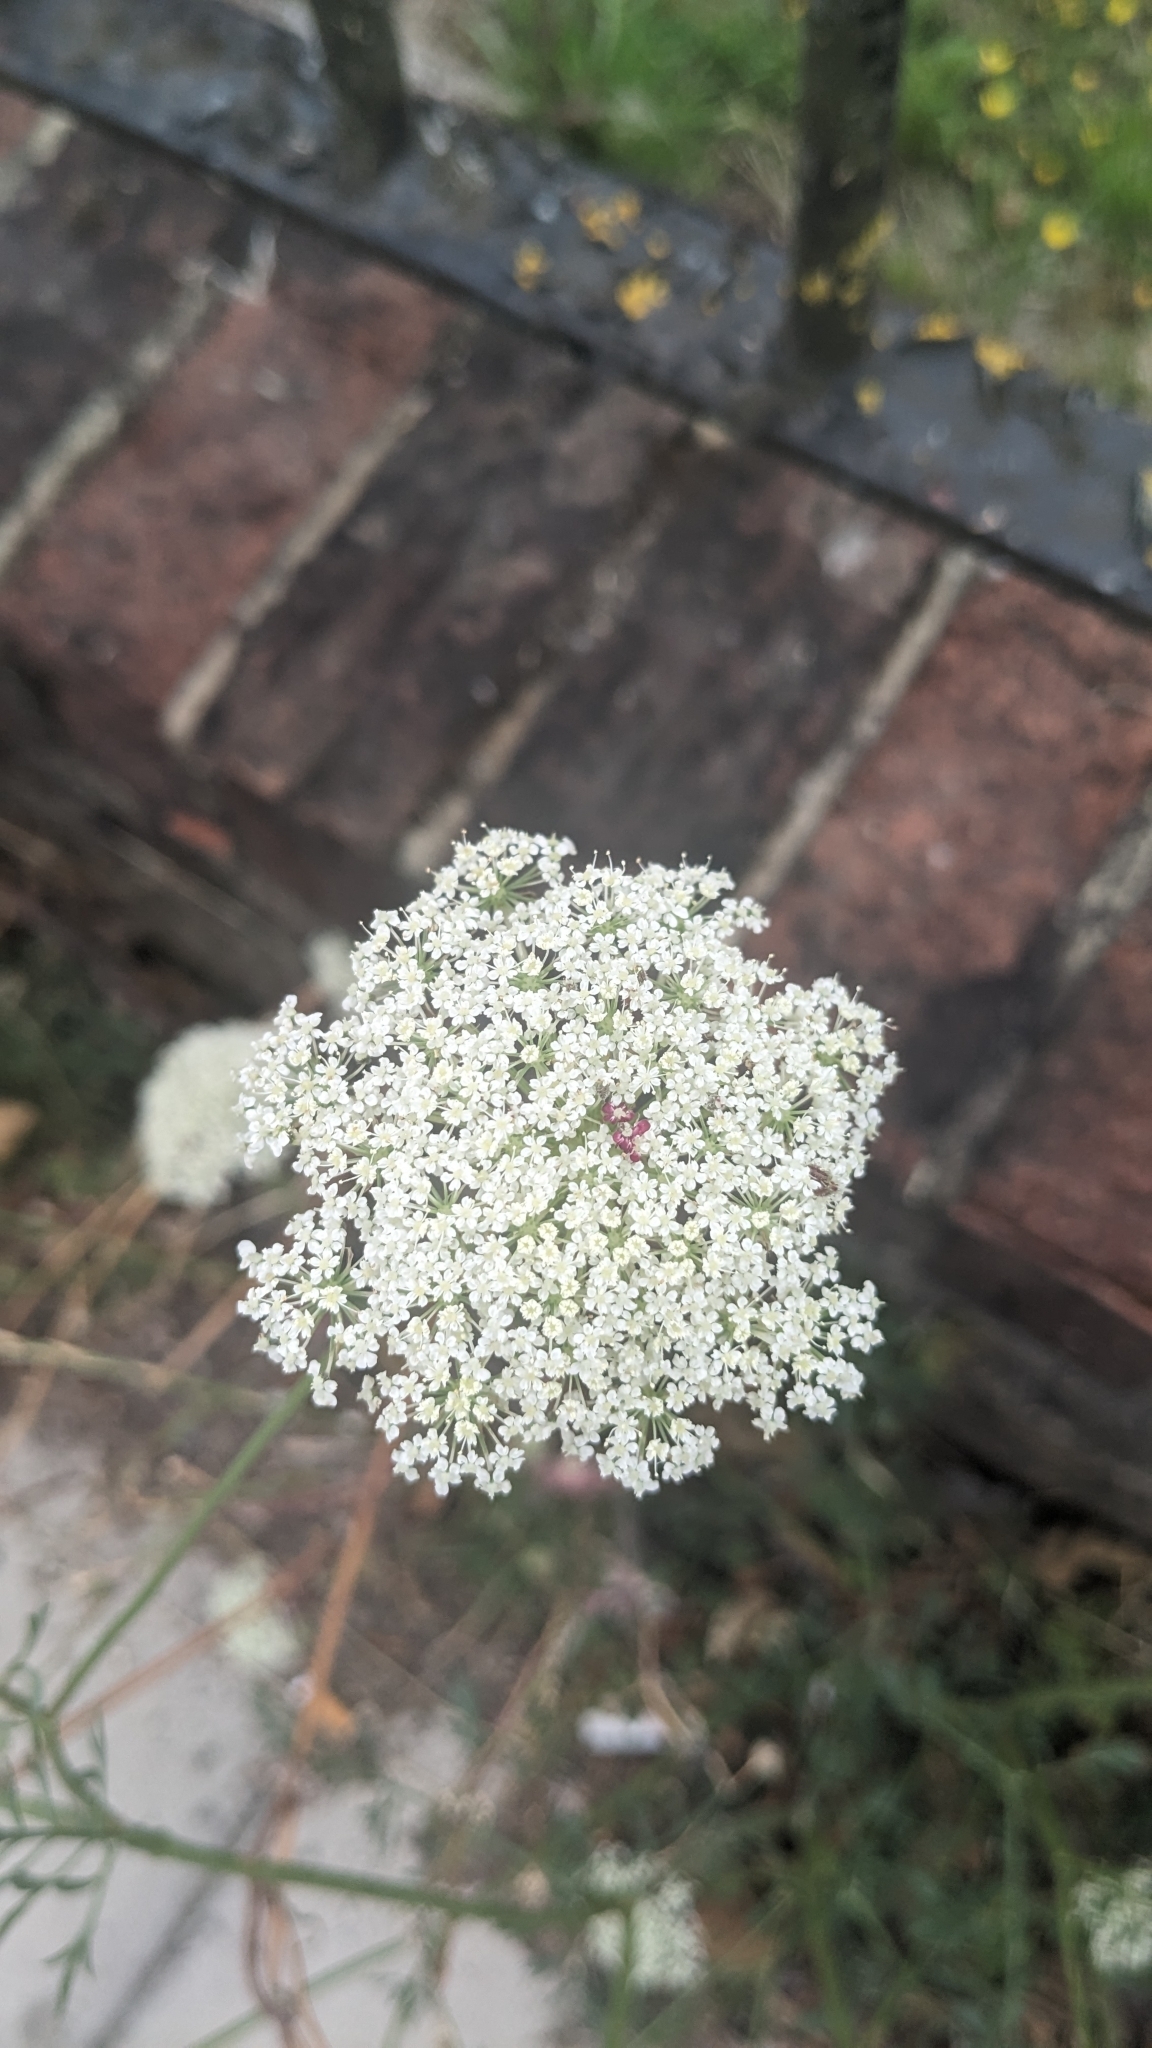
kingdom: Plantae
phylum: Tracheophyta
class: Magnoliopsida
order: Apiales
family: Apiaceae
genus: Daucus
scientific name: Daucus carota
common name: Wild carrot
